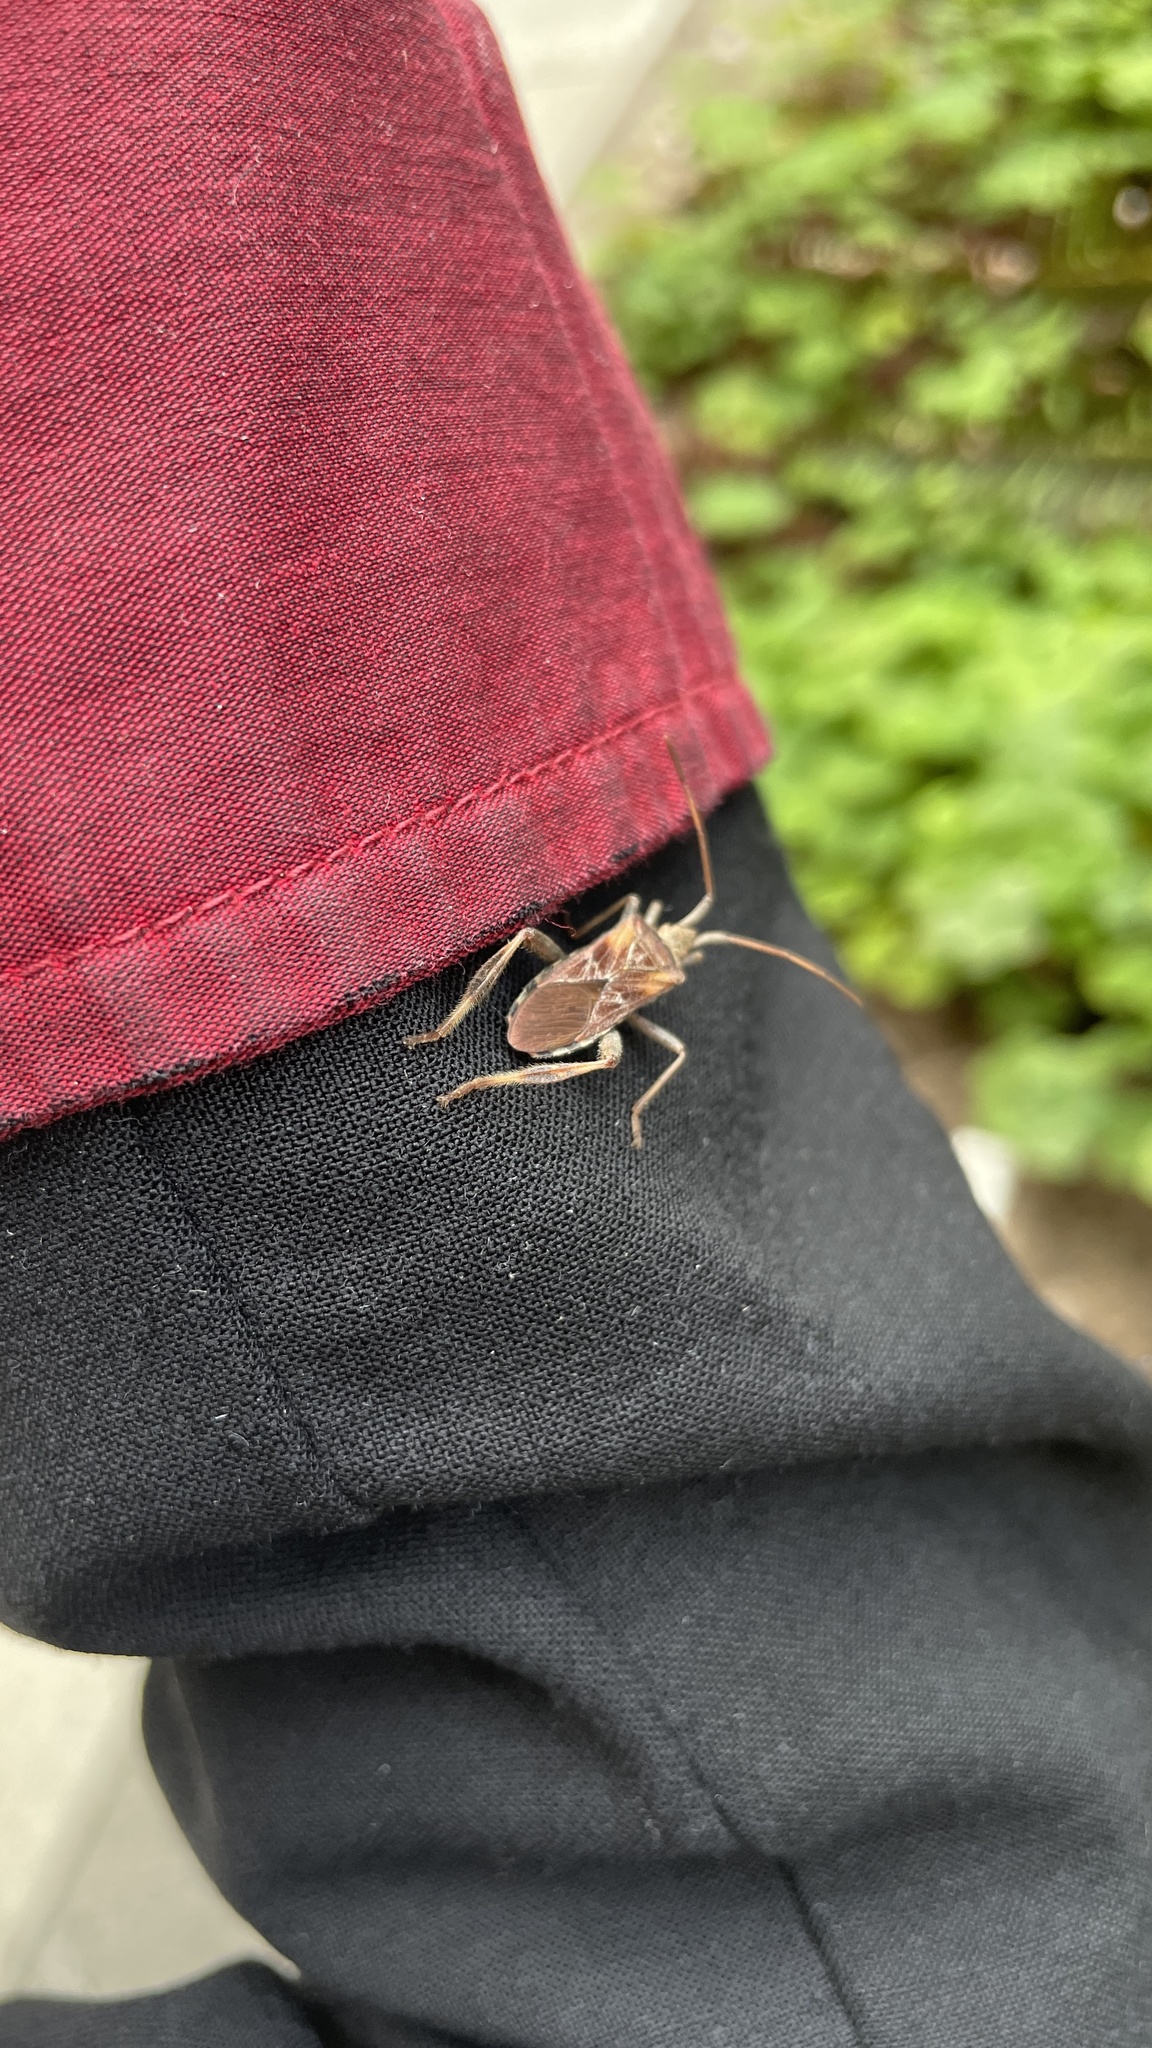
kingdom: Animalia
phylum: Arthropoda
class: Insecta
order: Hemiptera
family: Coreidae
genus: Leptoglossus
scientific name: Leptoglossus occidentalis
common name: Western conifer-seed bug
